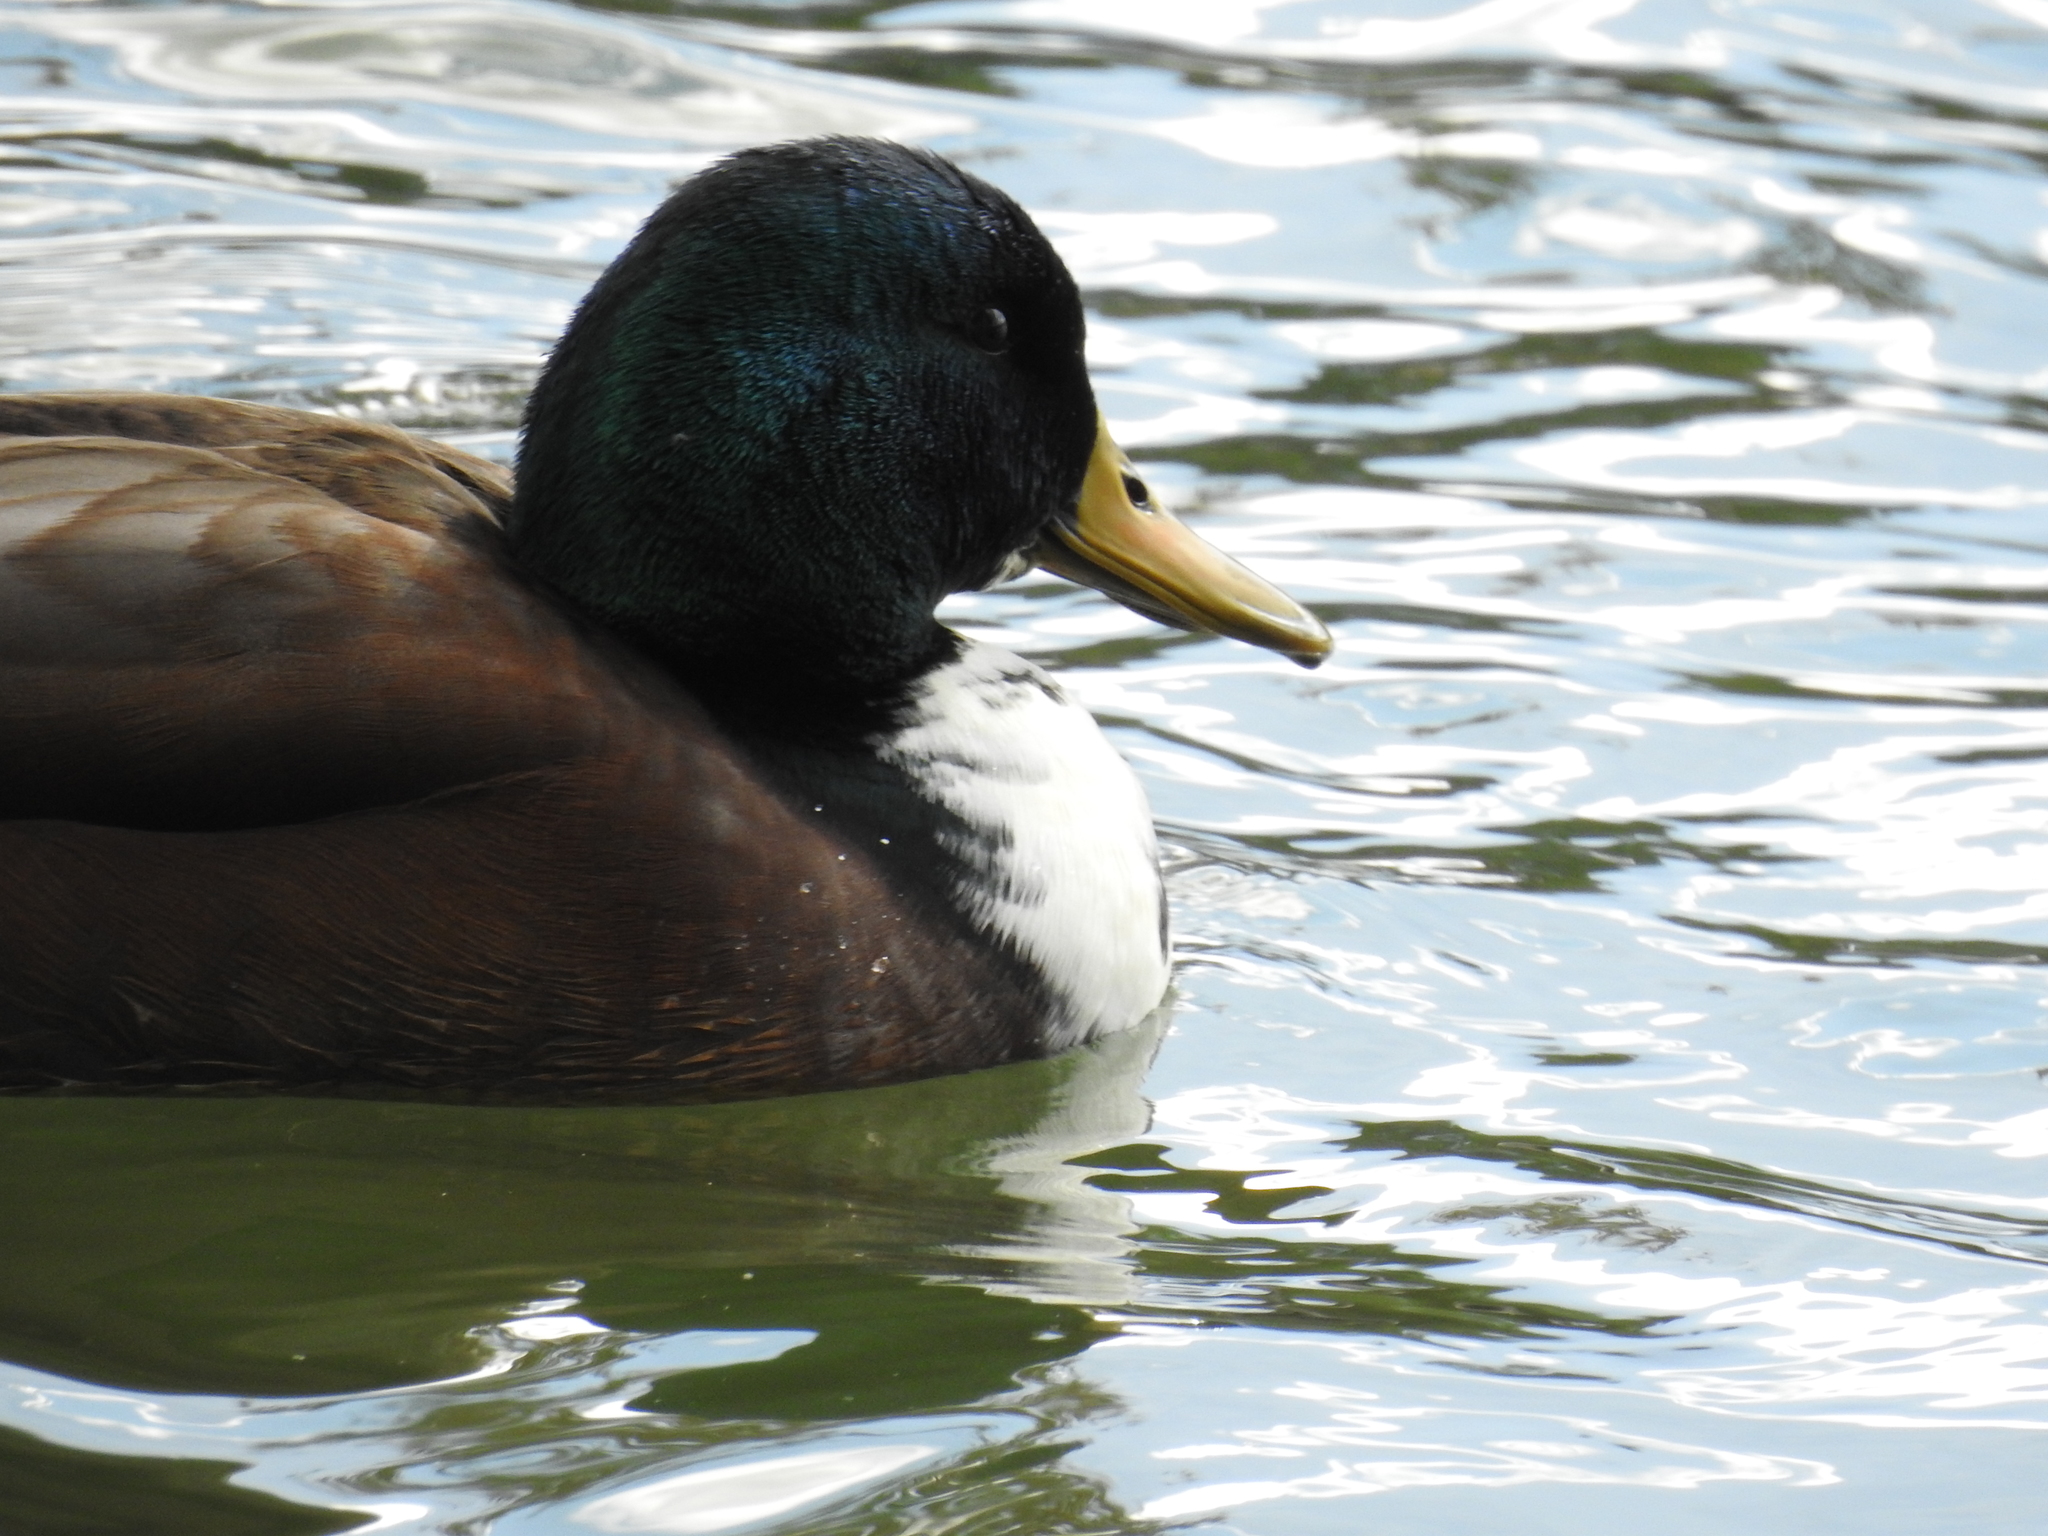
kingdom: Animalia
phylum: Chordata
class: Aves
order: Anseriformes
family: Anatidae
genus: Anas
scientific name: Anas platyrhynchos
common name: Mallard
